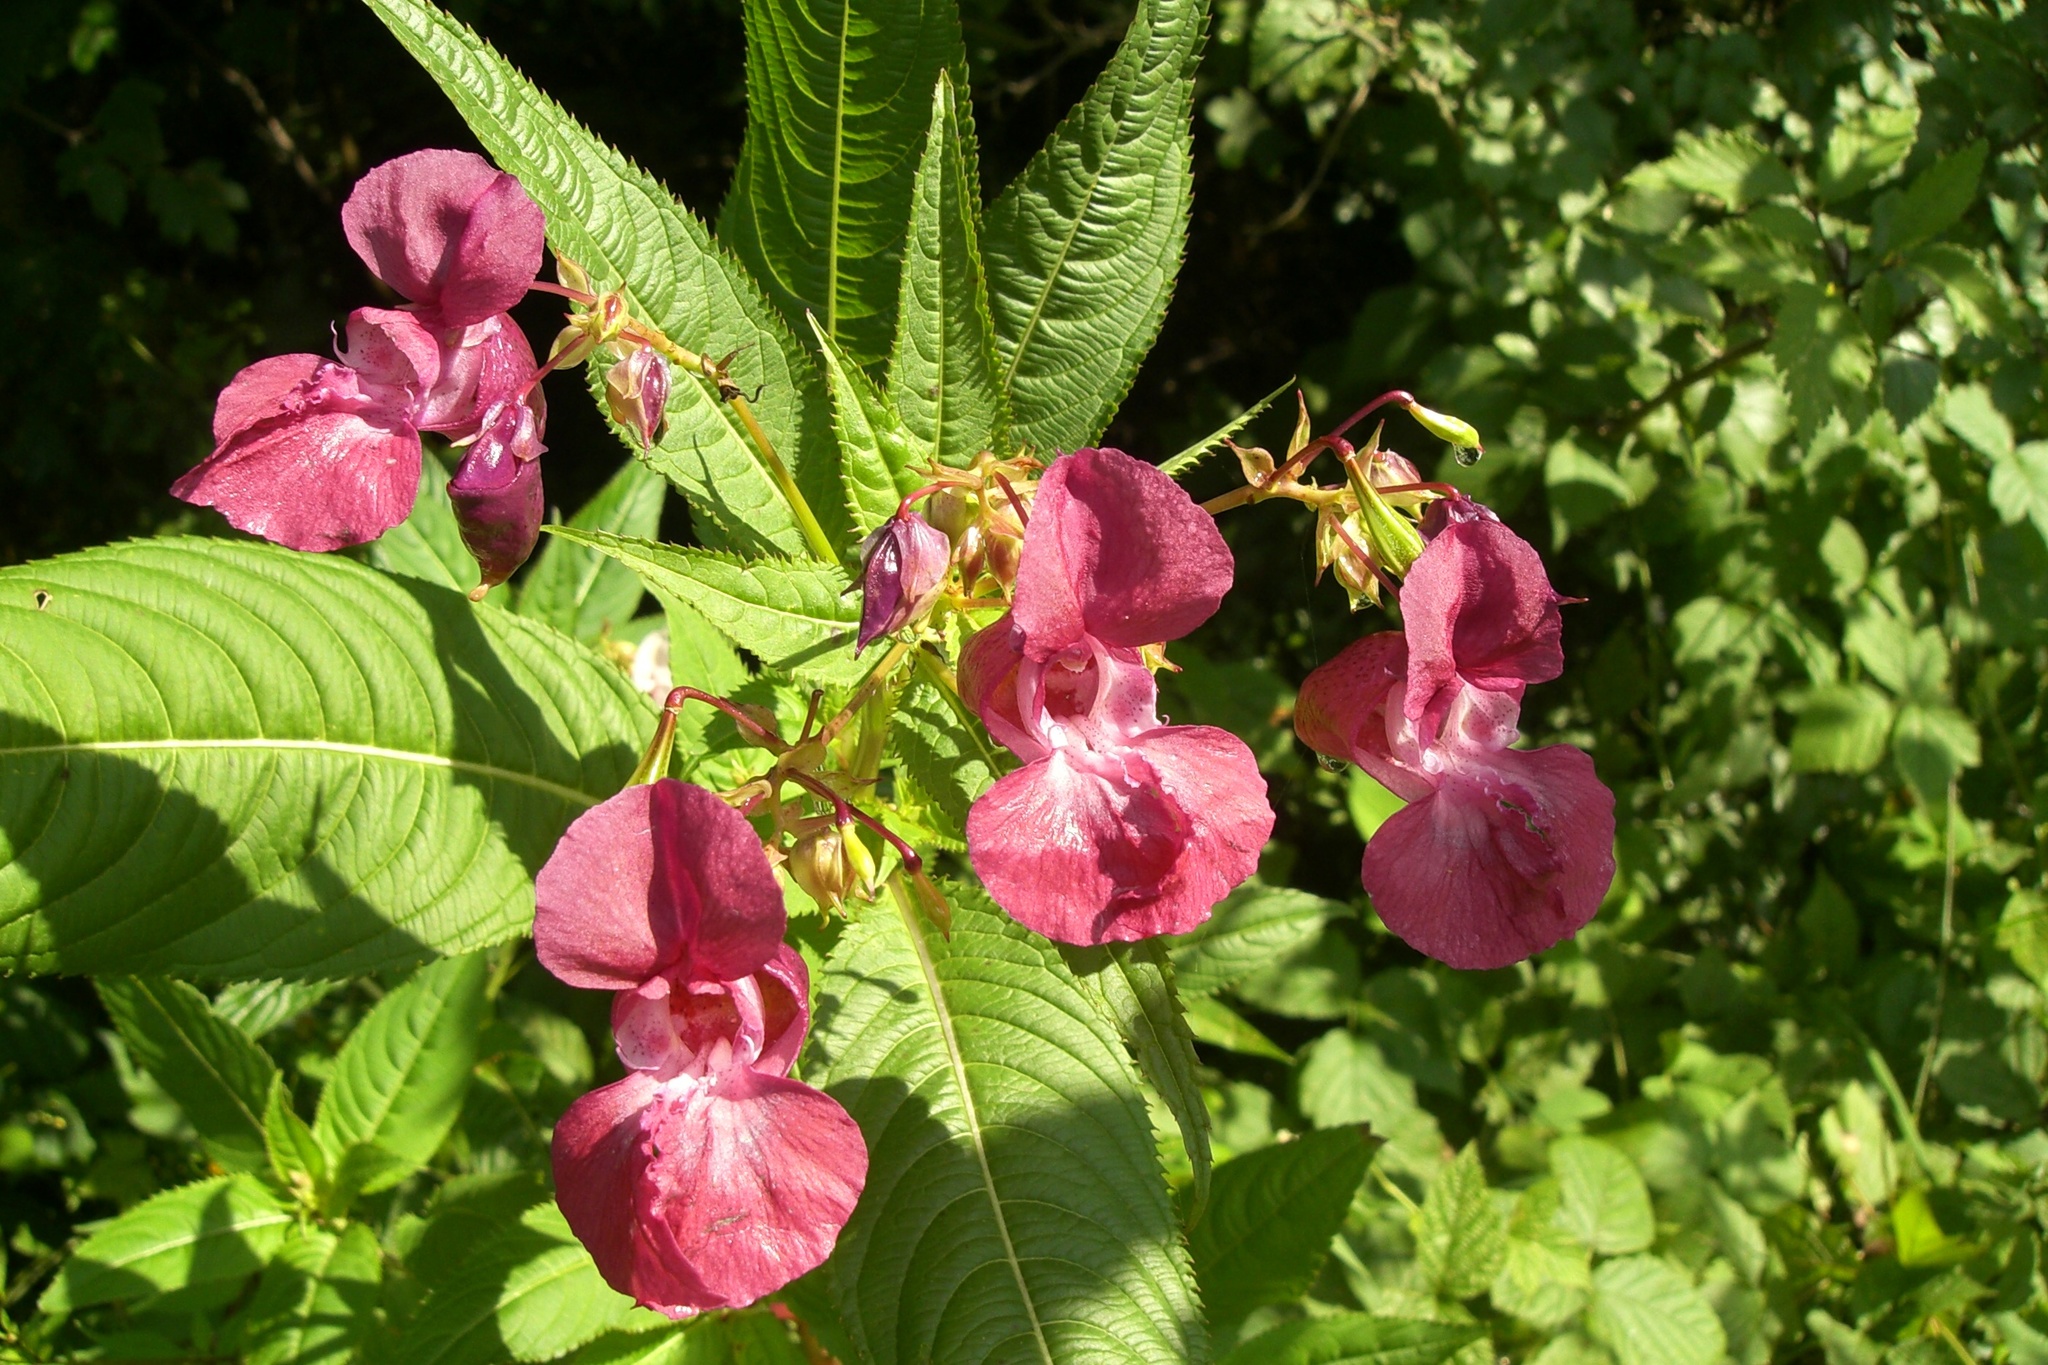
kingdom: Plantae
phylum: Tracheophyta
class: Magnoliopsida
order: Ericales
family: Balsaminaceae
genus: Impatiens
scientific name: Impatiens glandulifera
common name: Himalayan balsam
